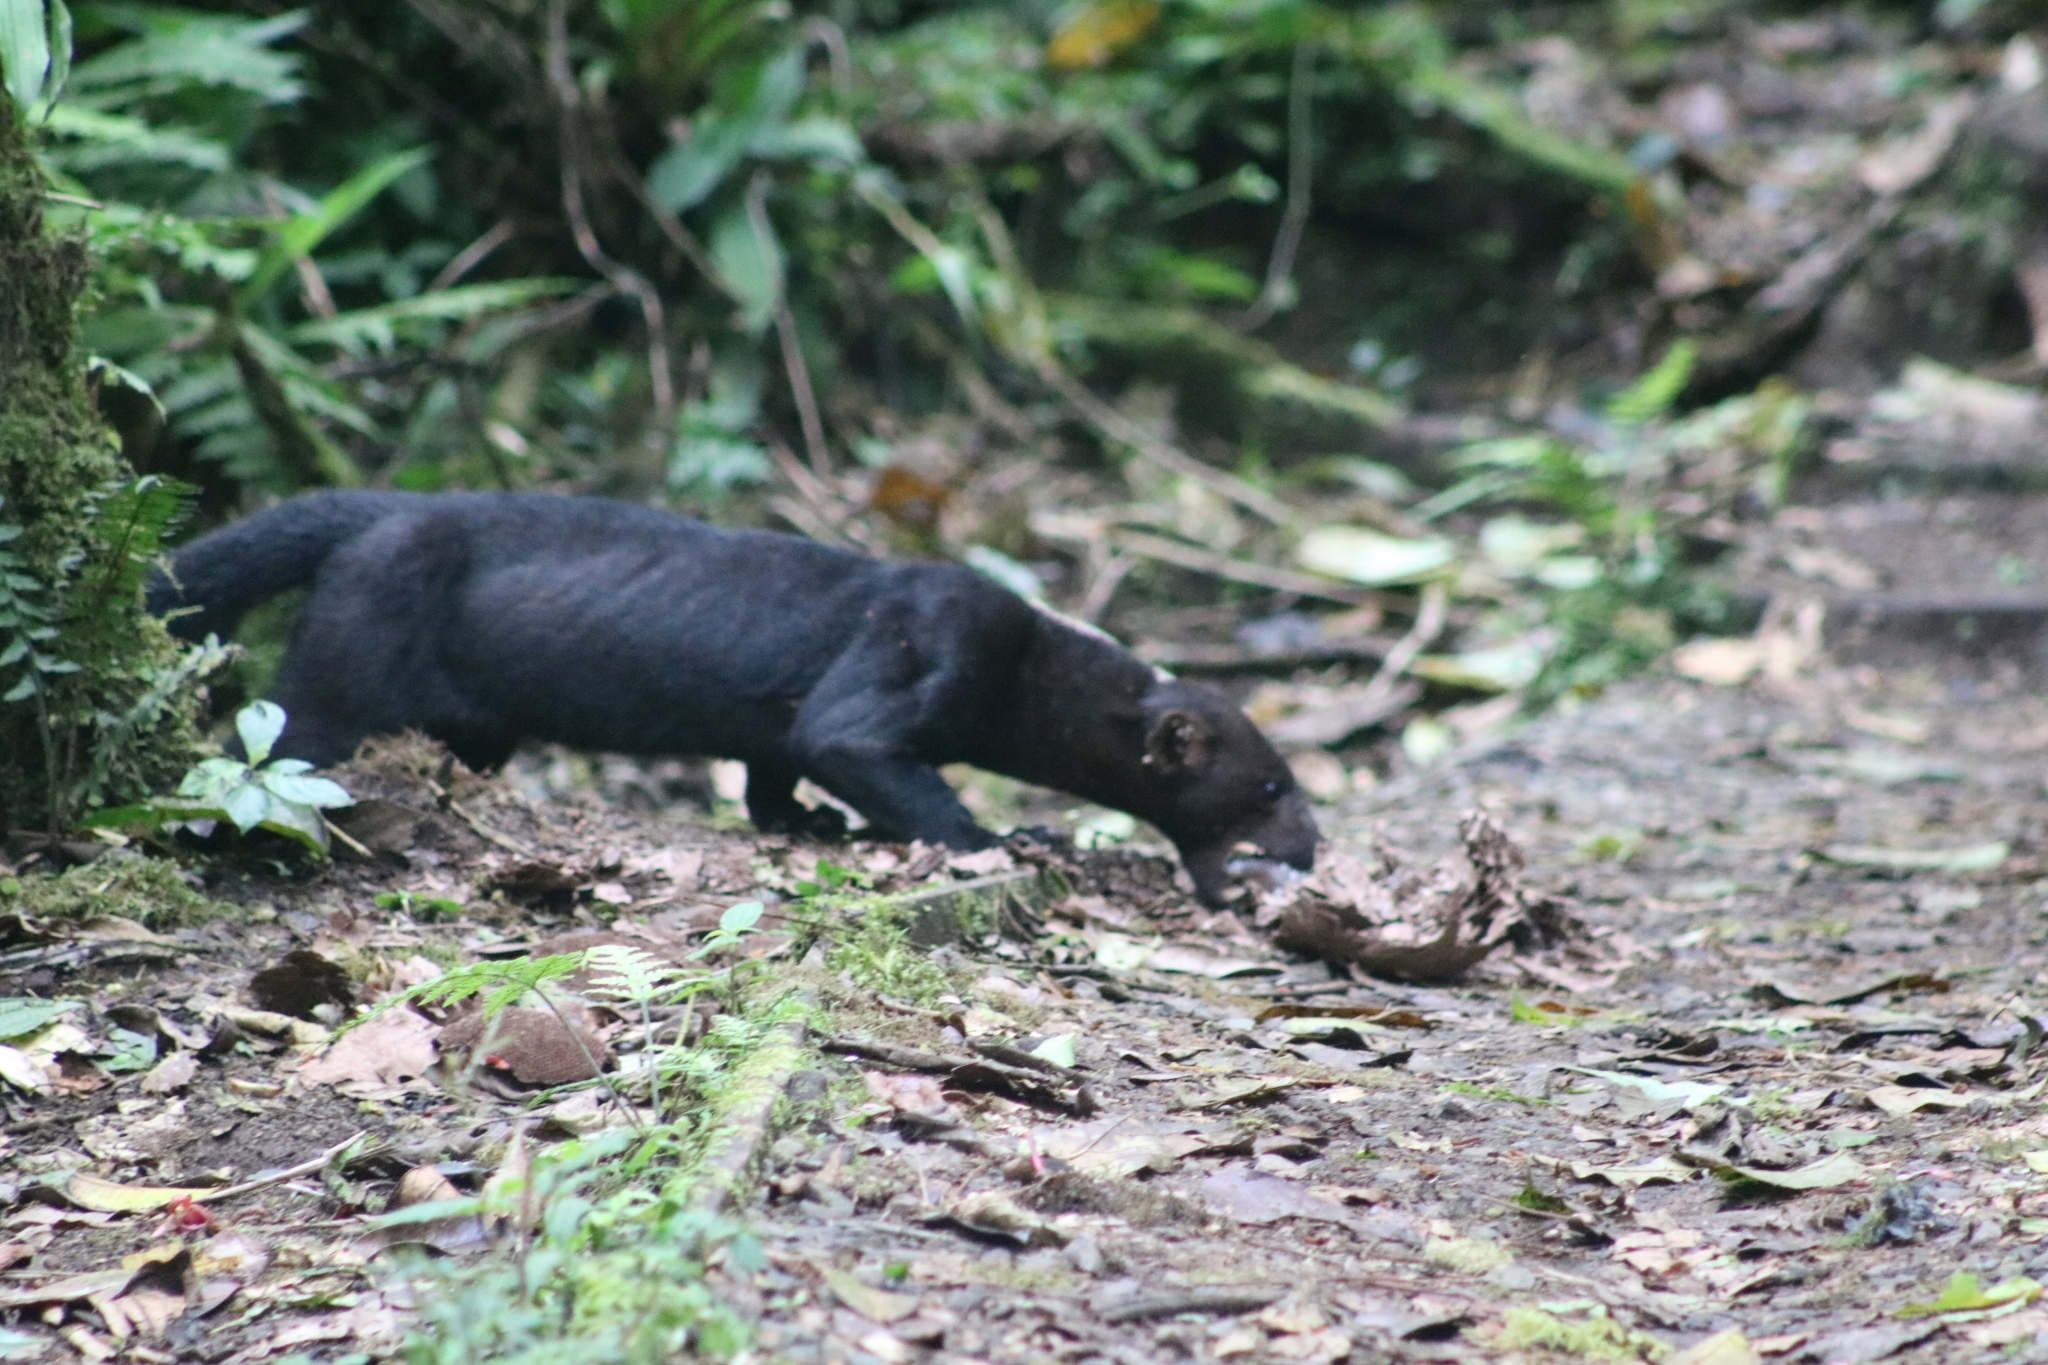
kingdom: Animalia
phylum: Chordata
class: Mammalia
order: Carnivora
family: Mustelidae
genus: Eira
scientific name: Eira barbara
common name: Tayra
